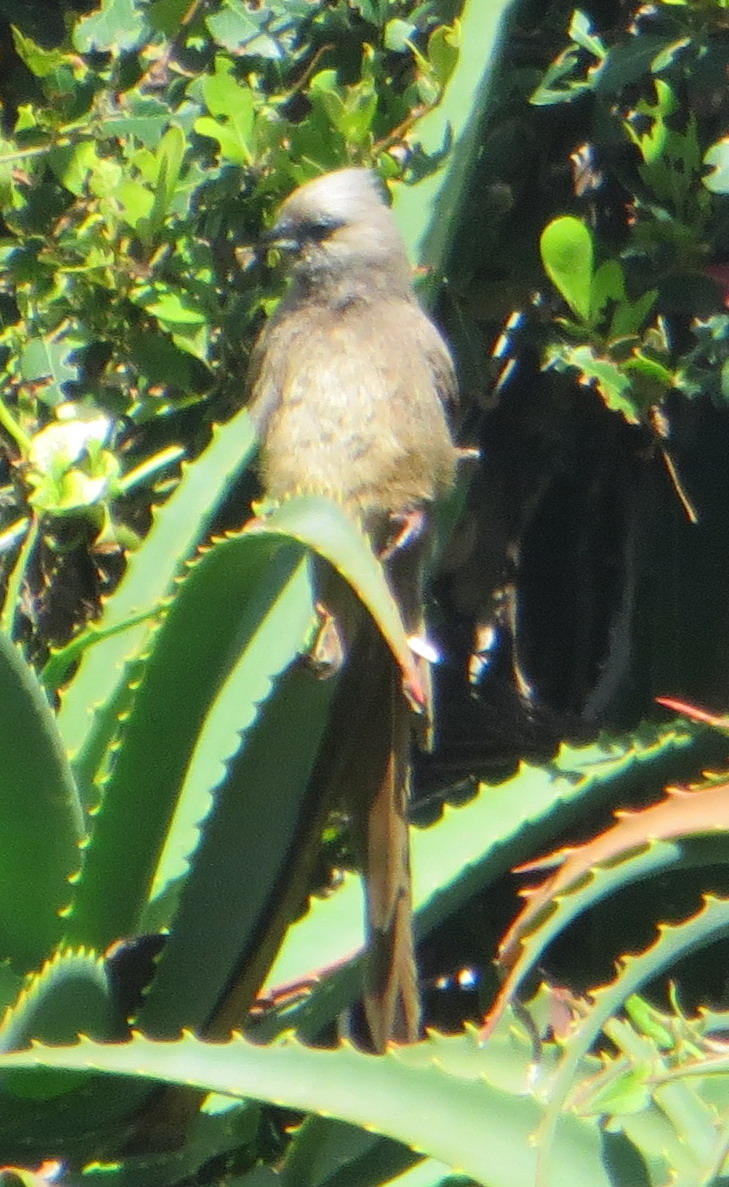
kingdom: Animalia
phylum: Chordata
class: Aves
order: Coliiformes
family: Coliidae
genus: Colius
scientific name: Colius striatus
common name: Speckled mousebird
